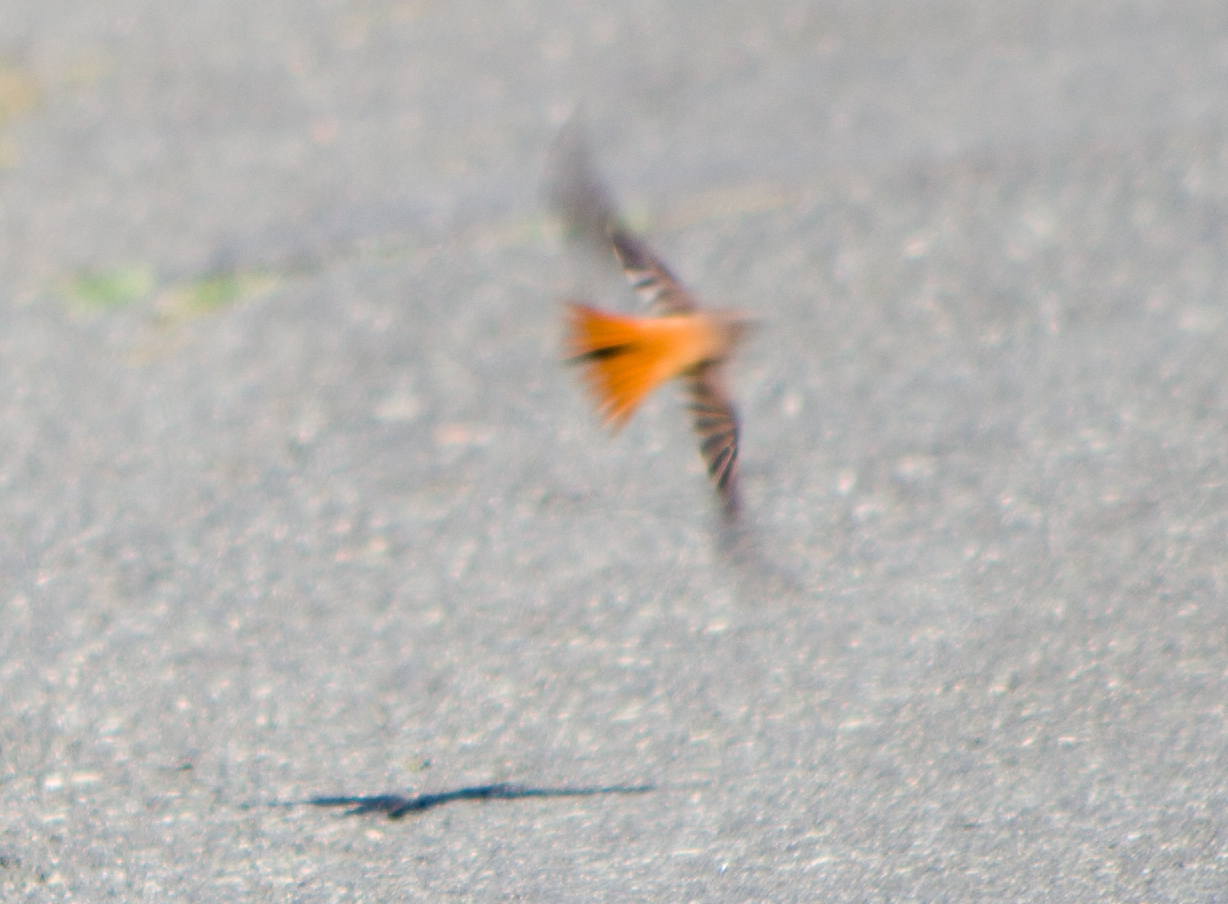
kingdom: Animalia
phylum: Chordata
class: Aves
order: Passeriformes
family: Muscicapidae
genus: Phoenicurus
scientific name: Phoenicurus phoenicurus
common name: Common redstart
